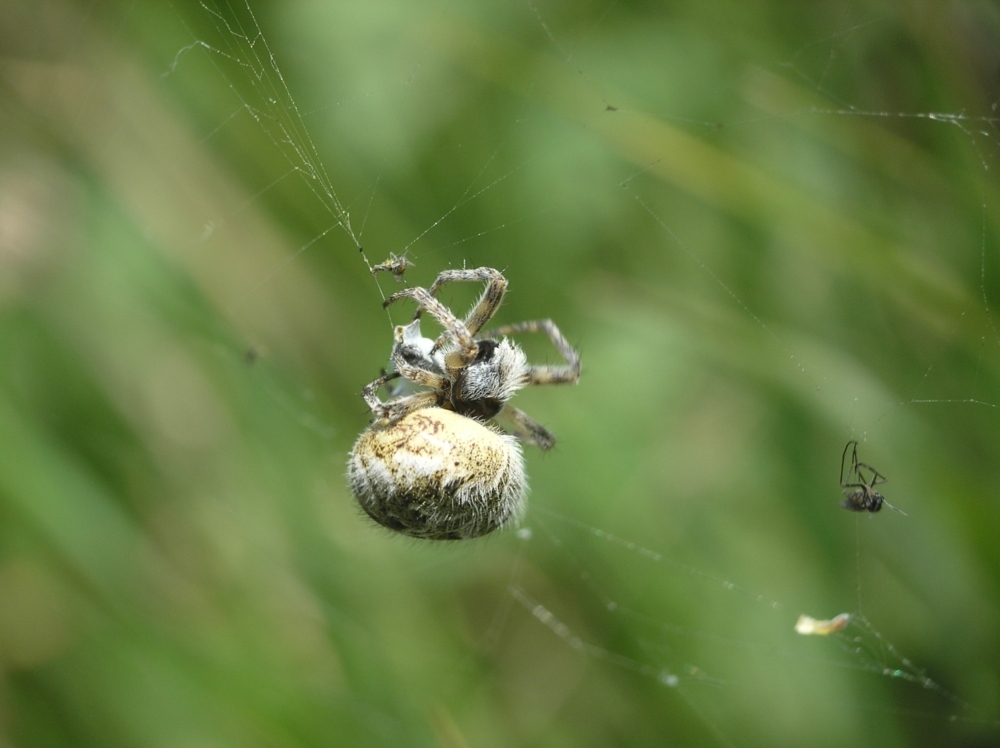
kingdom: Animalia
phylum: Arthropoda
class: Arachnida
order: Araneae
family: Araneidae
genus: Agalenatea
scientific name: Agalenatea redii
